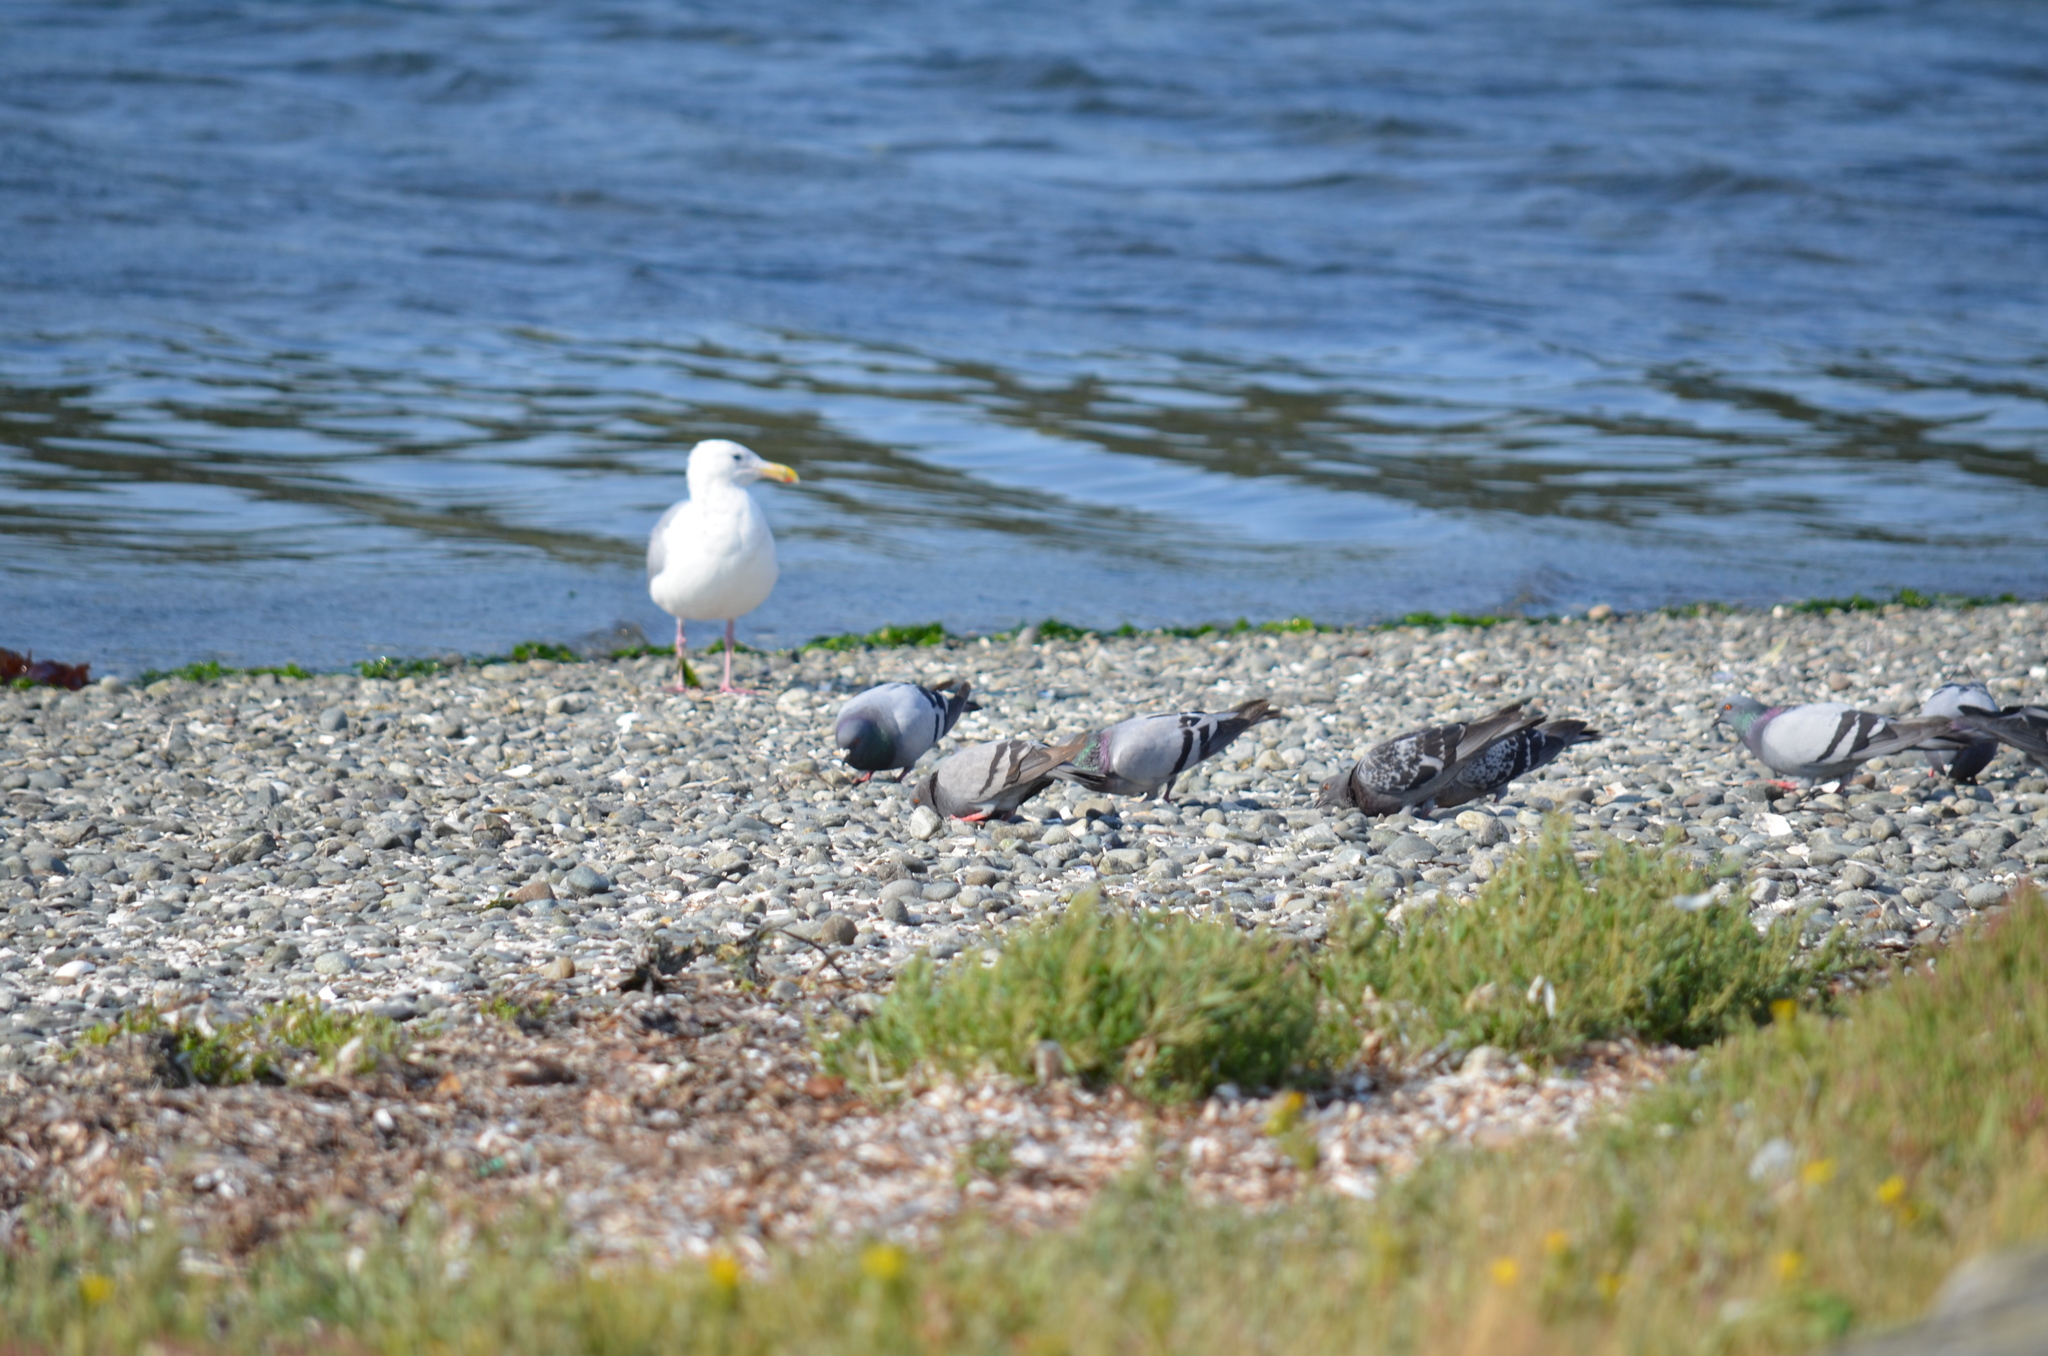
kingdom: Animalia
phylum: Chordata
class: Aves
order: Columbiformes
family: Columbidae
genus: Columba
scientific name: Columba livia
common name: Rock pigeon
